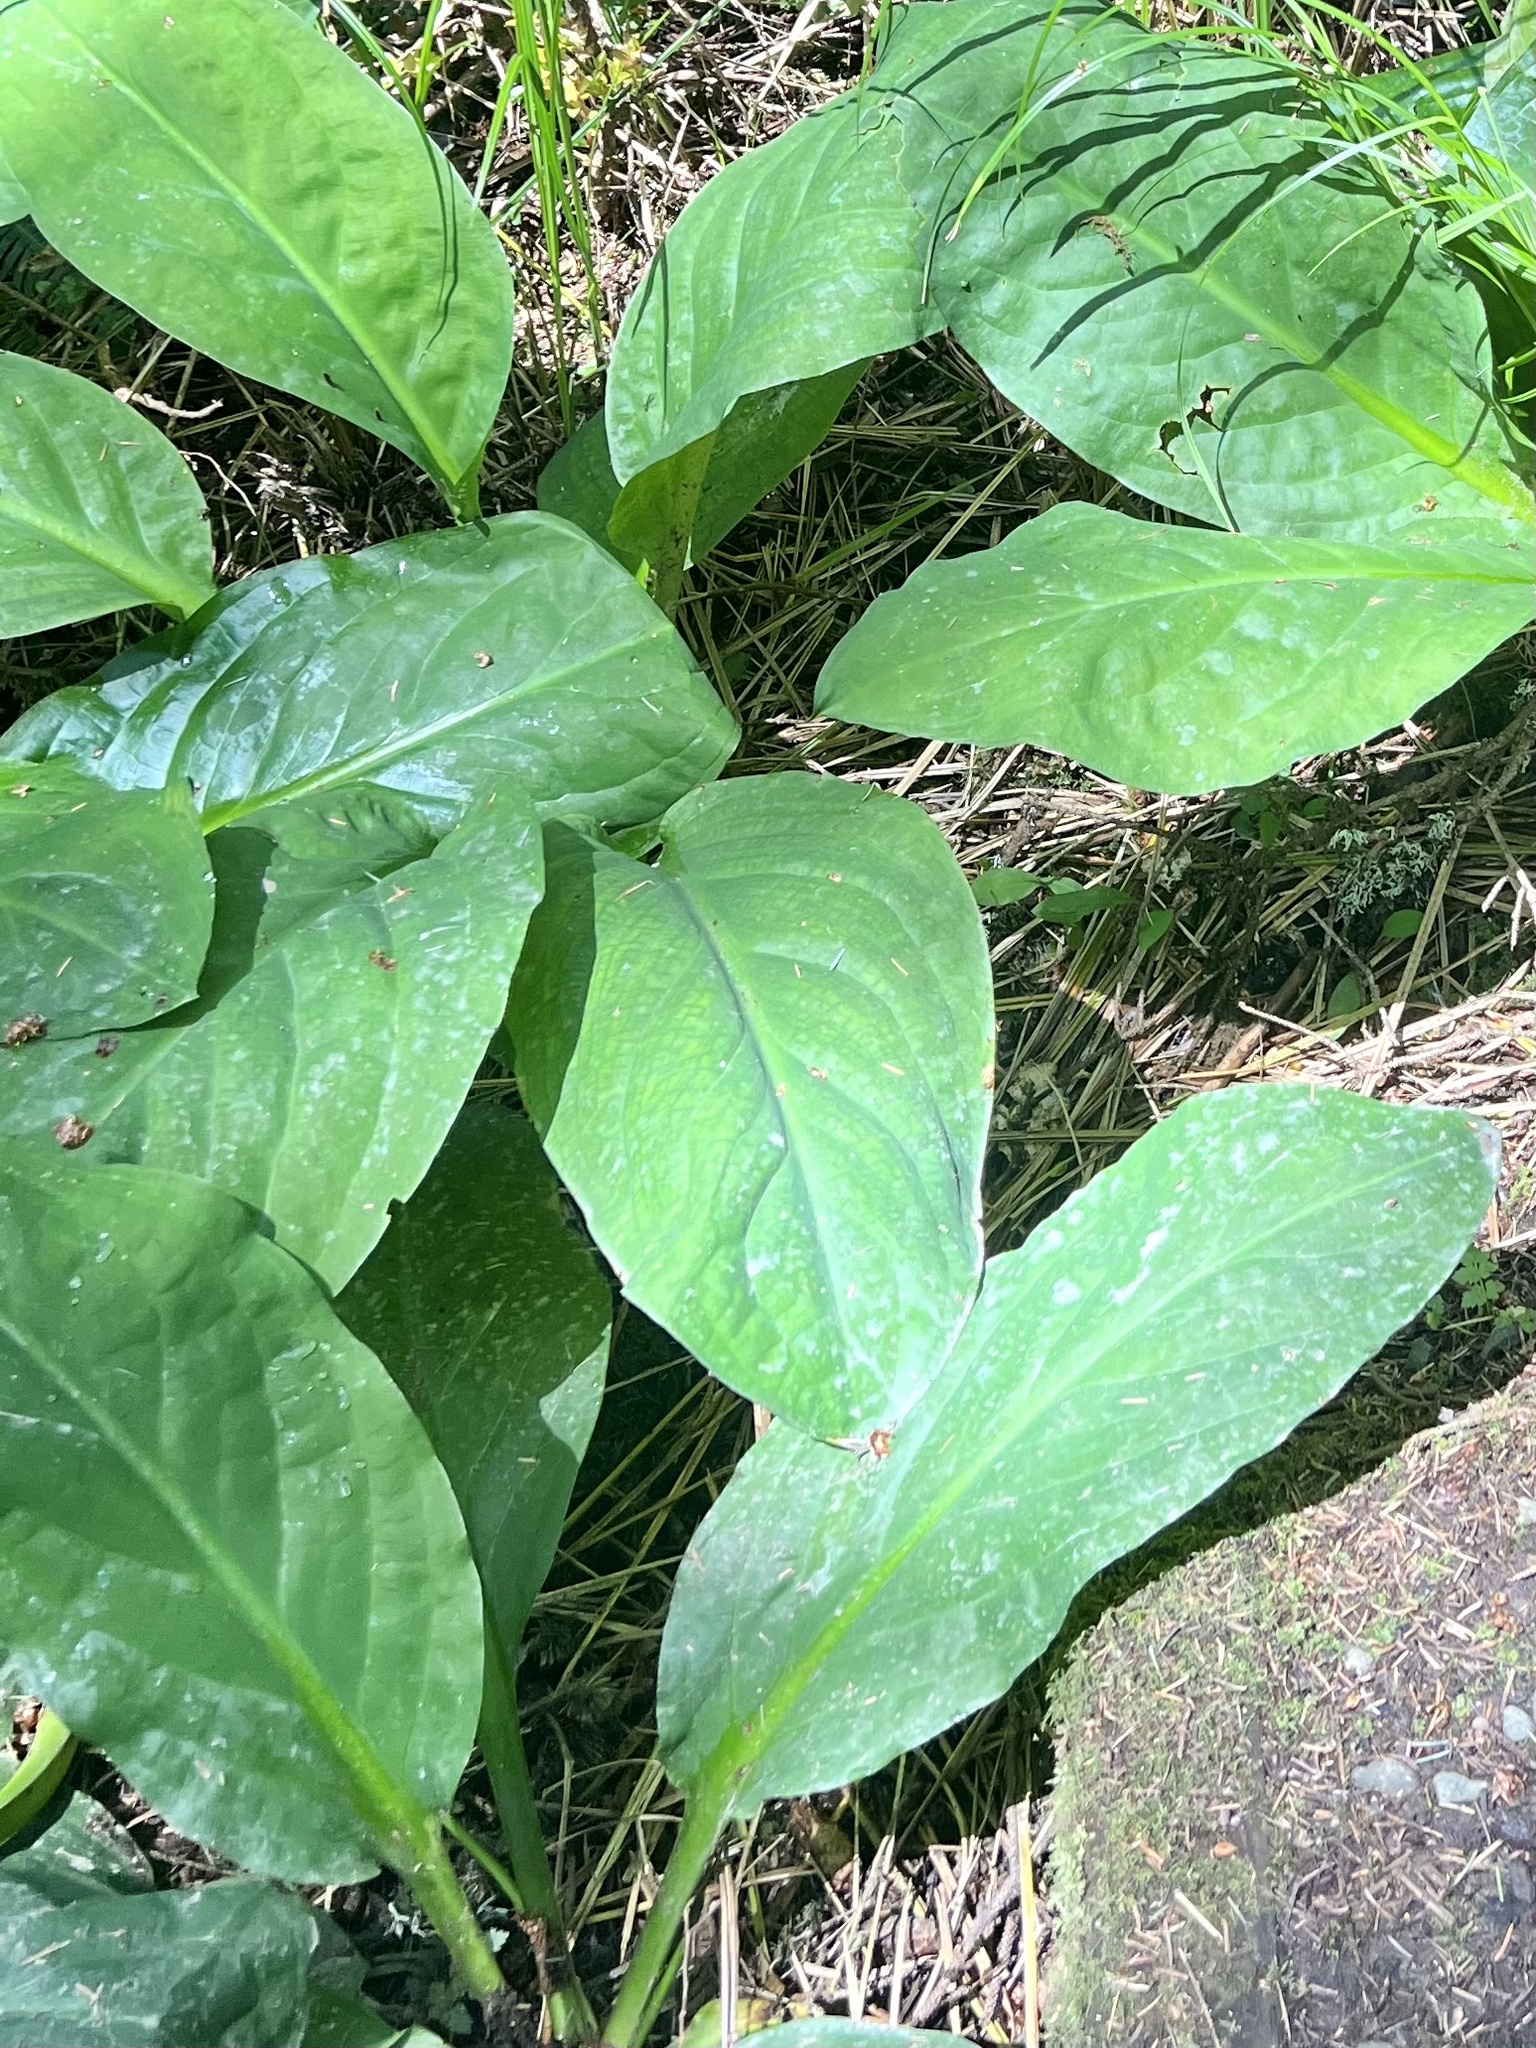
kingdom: Plantae
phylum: Tracheophyta
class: Liliopsida
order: Alismatales
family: Araceae
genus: Lysichiton
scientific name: Lysichiton americanus
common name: American skunk cabbage
